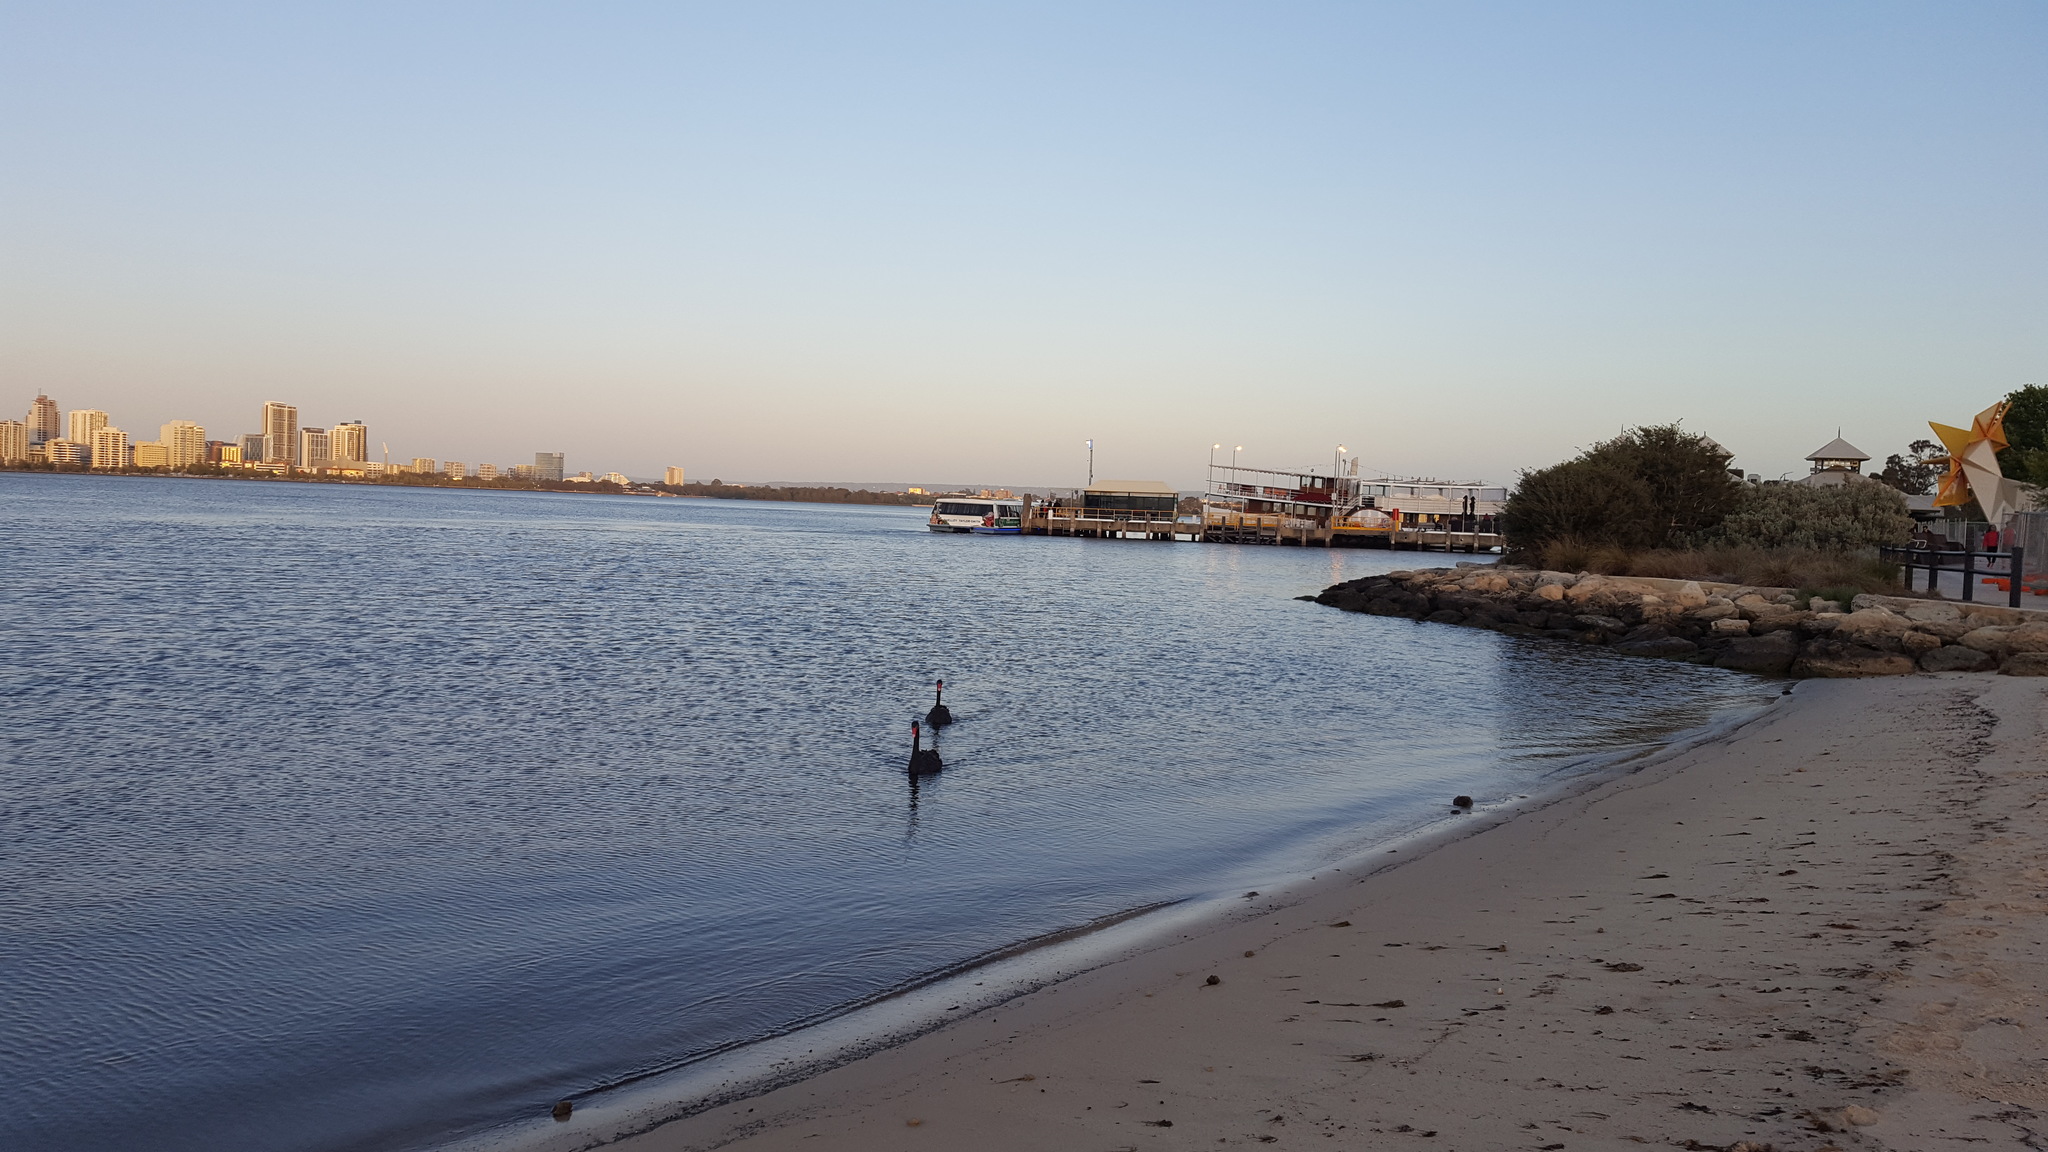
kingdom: Animalia
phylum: Chordata
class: Aves
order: Anseriformes
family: Anatidae
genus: Cygnus
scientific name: Cygnus atratus
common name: Black swan
